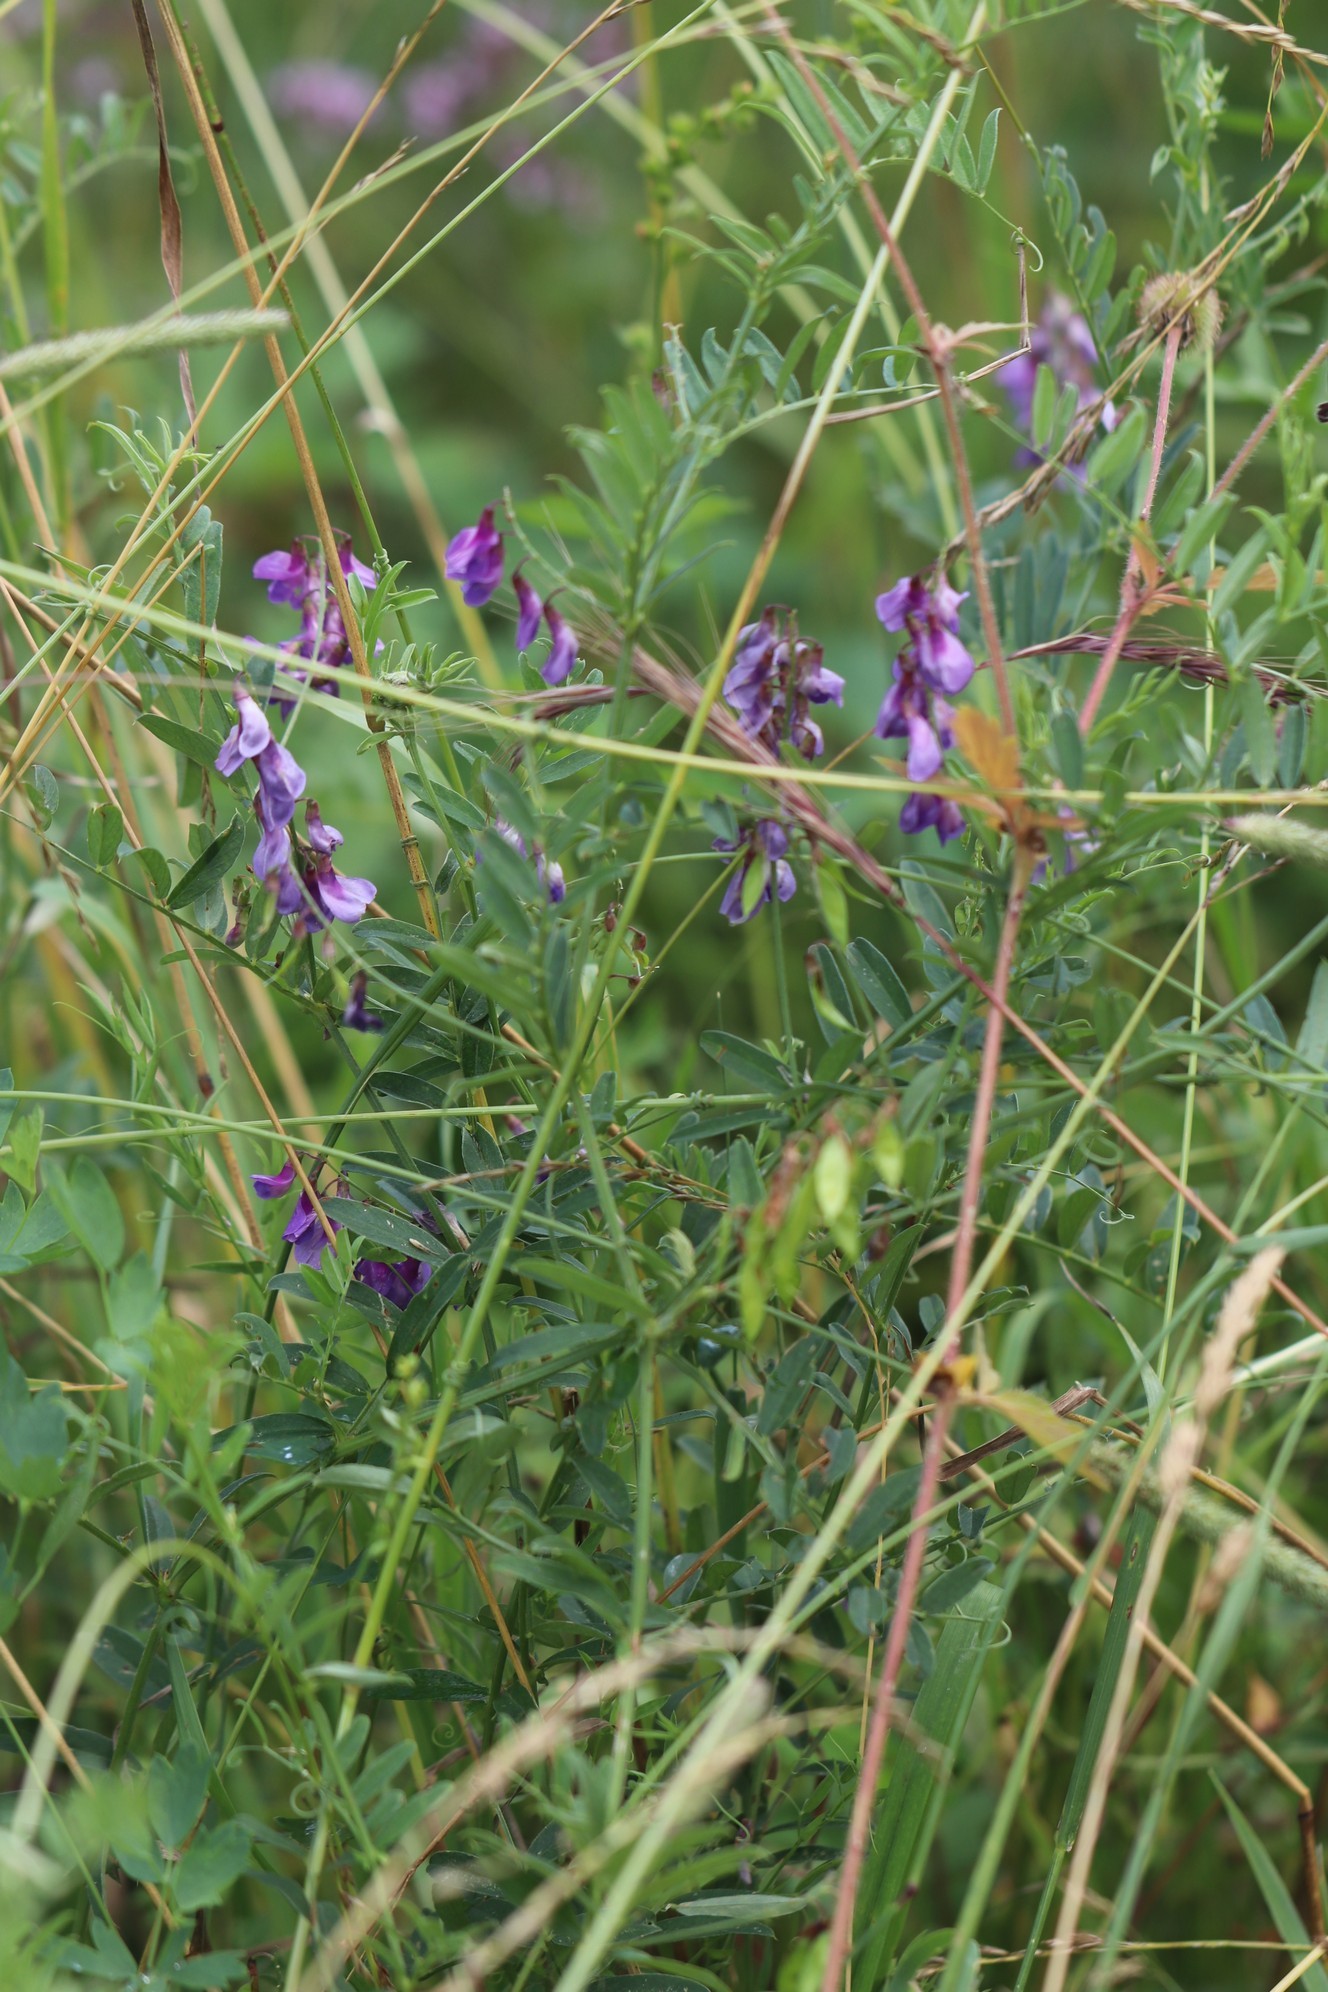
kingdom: Plantae
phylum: Tracheophyta
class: Magnoliopsida
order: Fabales
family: Fabaceae
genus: Vicia
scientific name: Vicia amoena
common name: Cheder ebs
